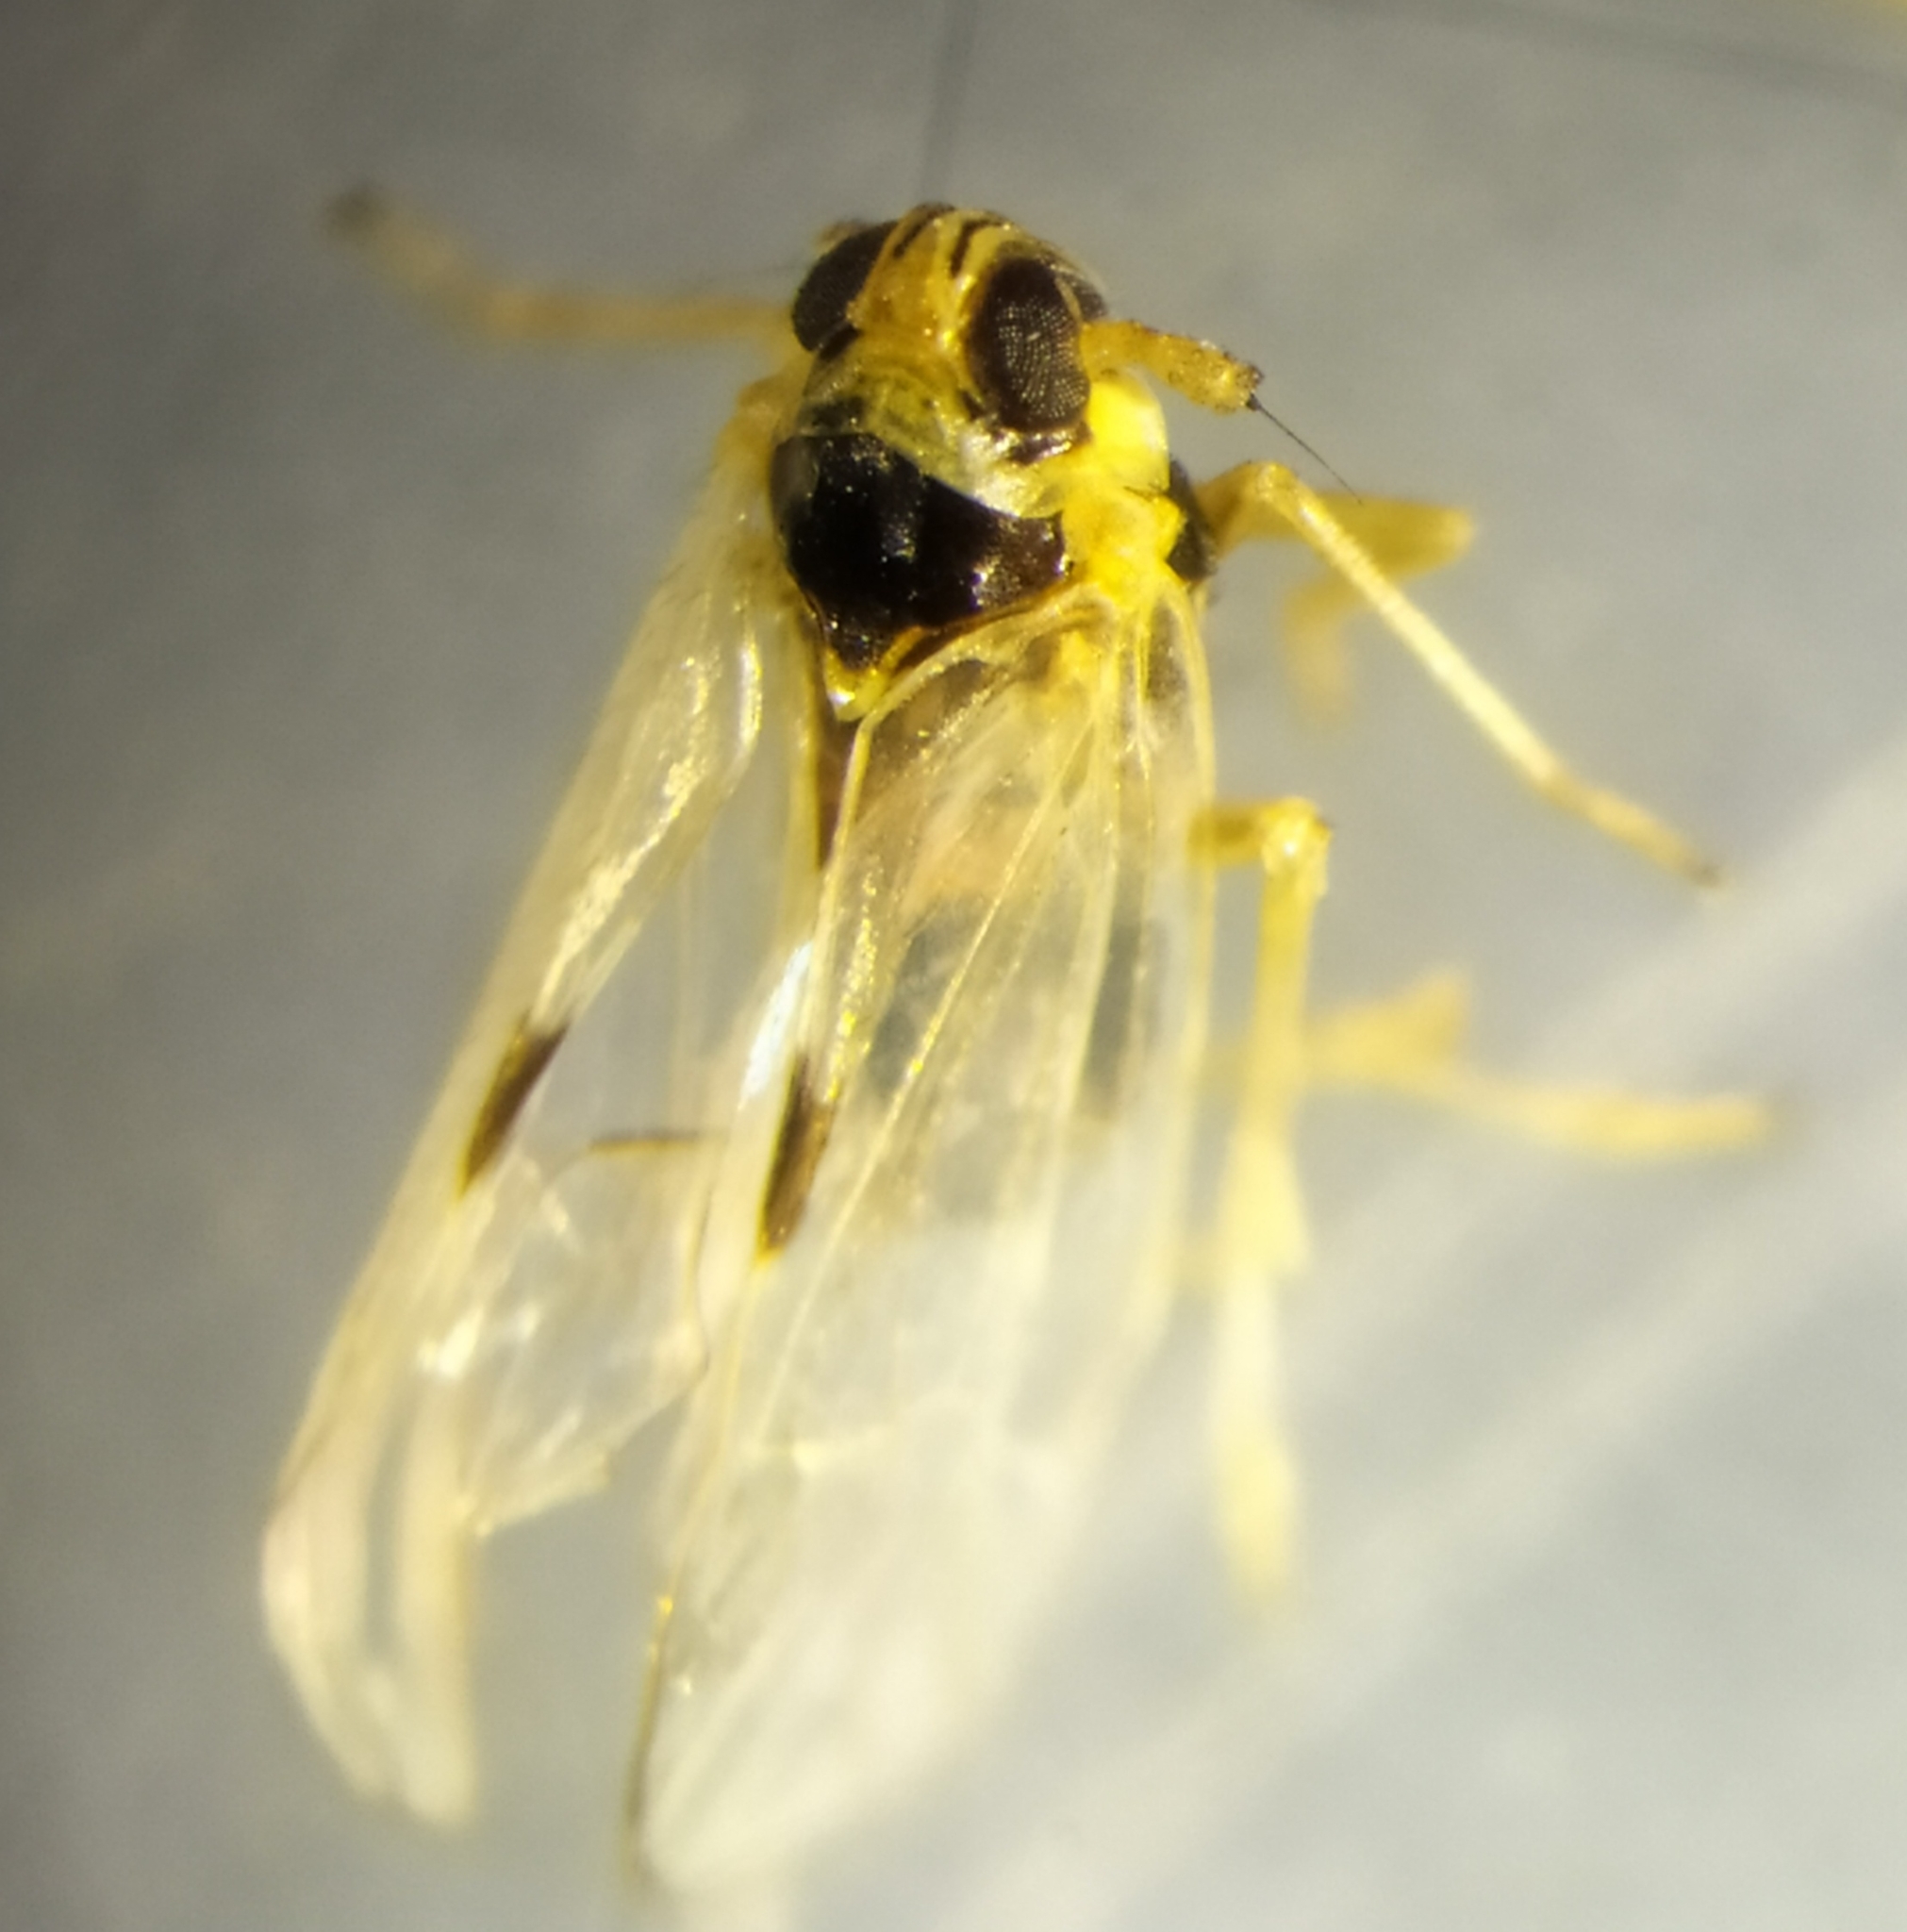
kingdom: Animalia
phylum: Arthropoda
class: Insecta
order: Hemiptera
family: Delphacidae
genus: Laodelphax
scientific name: Laodelphax striatellus
